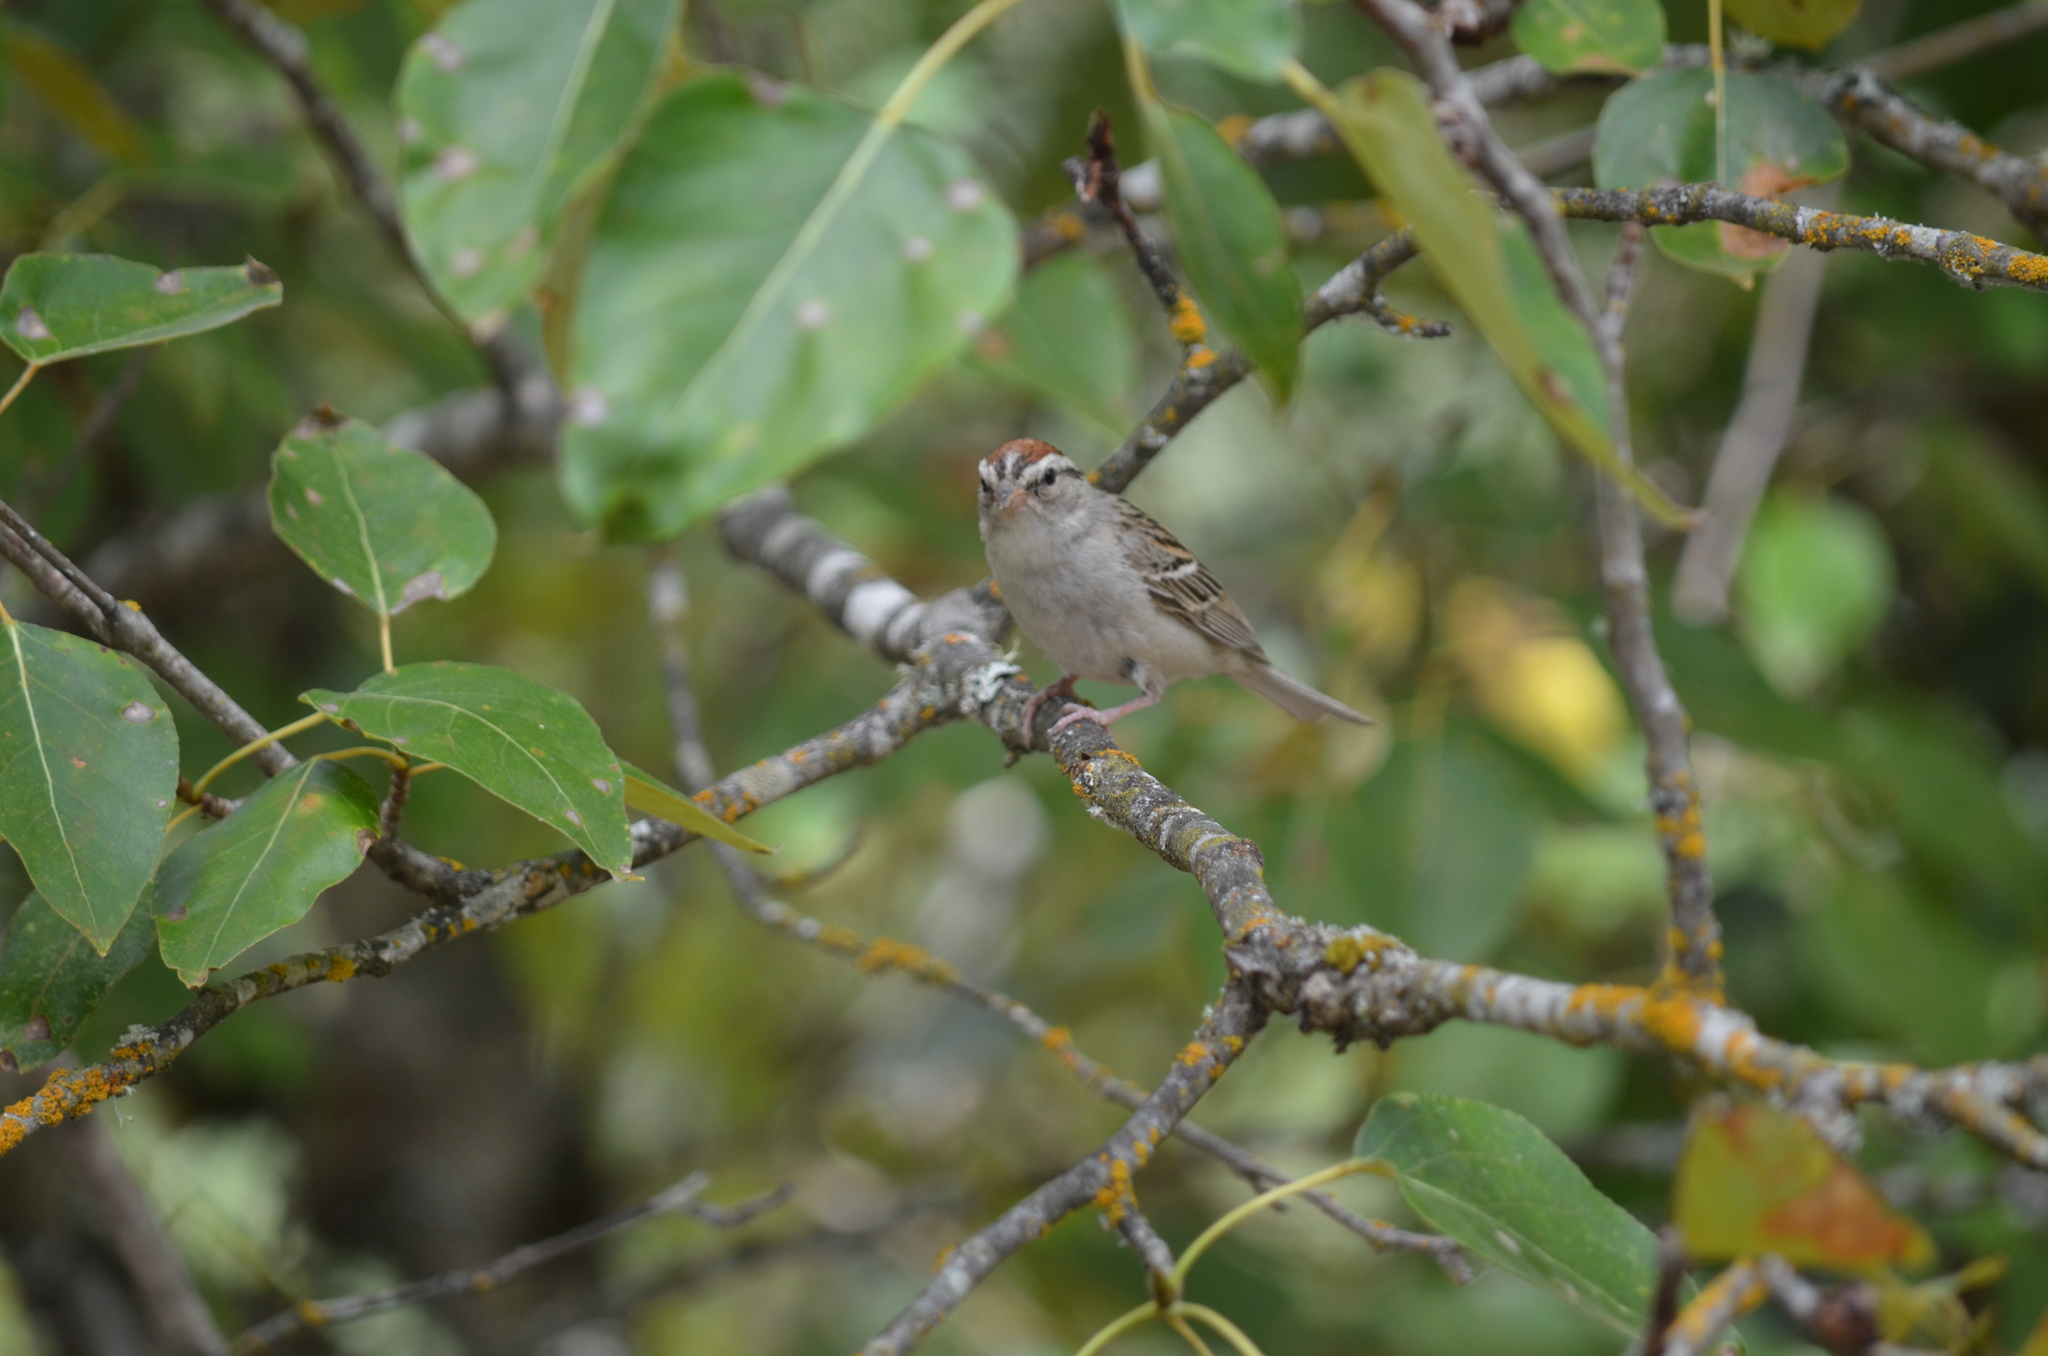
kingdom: Animalia
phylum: Chordata
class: Aves
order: Passeriformes
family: Passerellidae
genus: Spizella
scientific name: Spizella passerina
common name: Chipping sparrow
